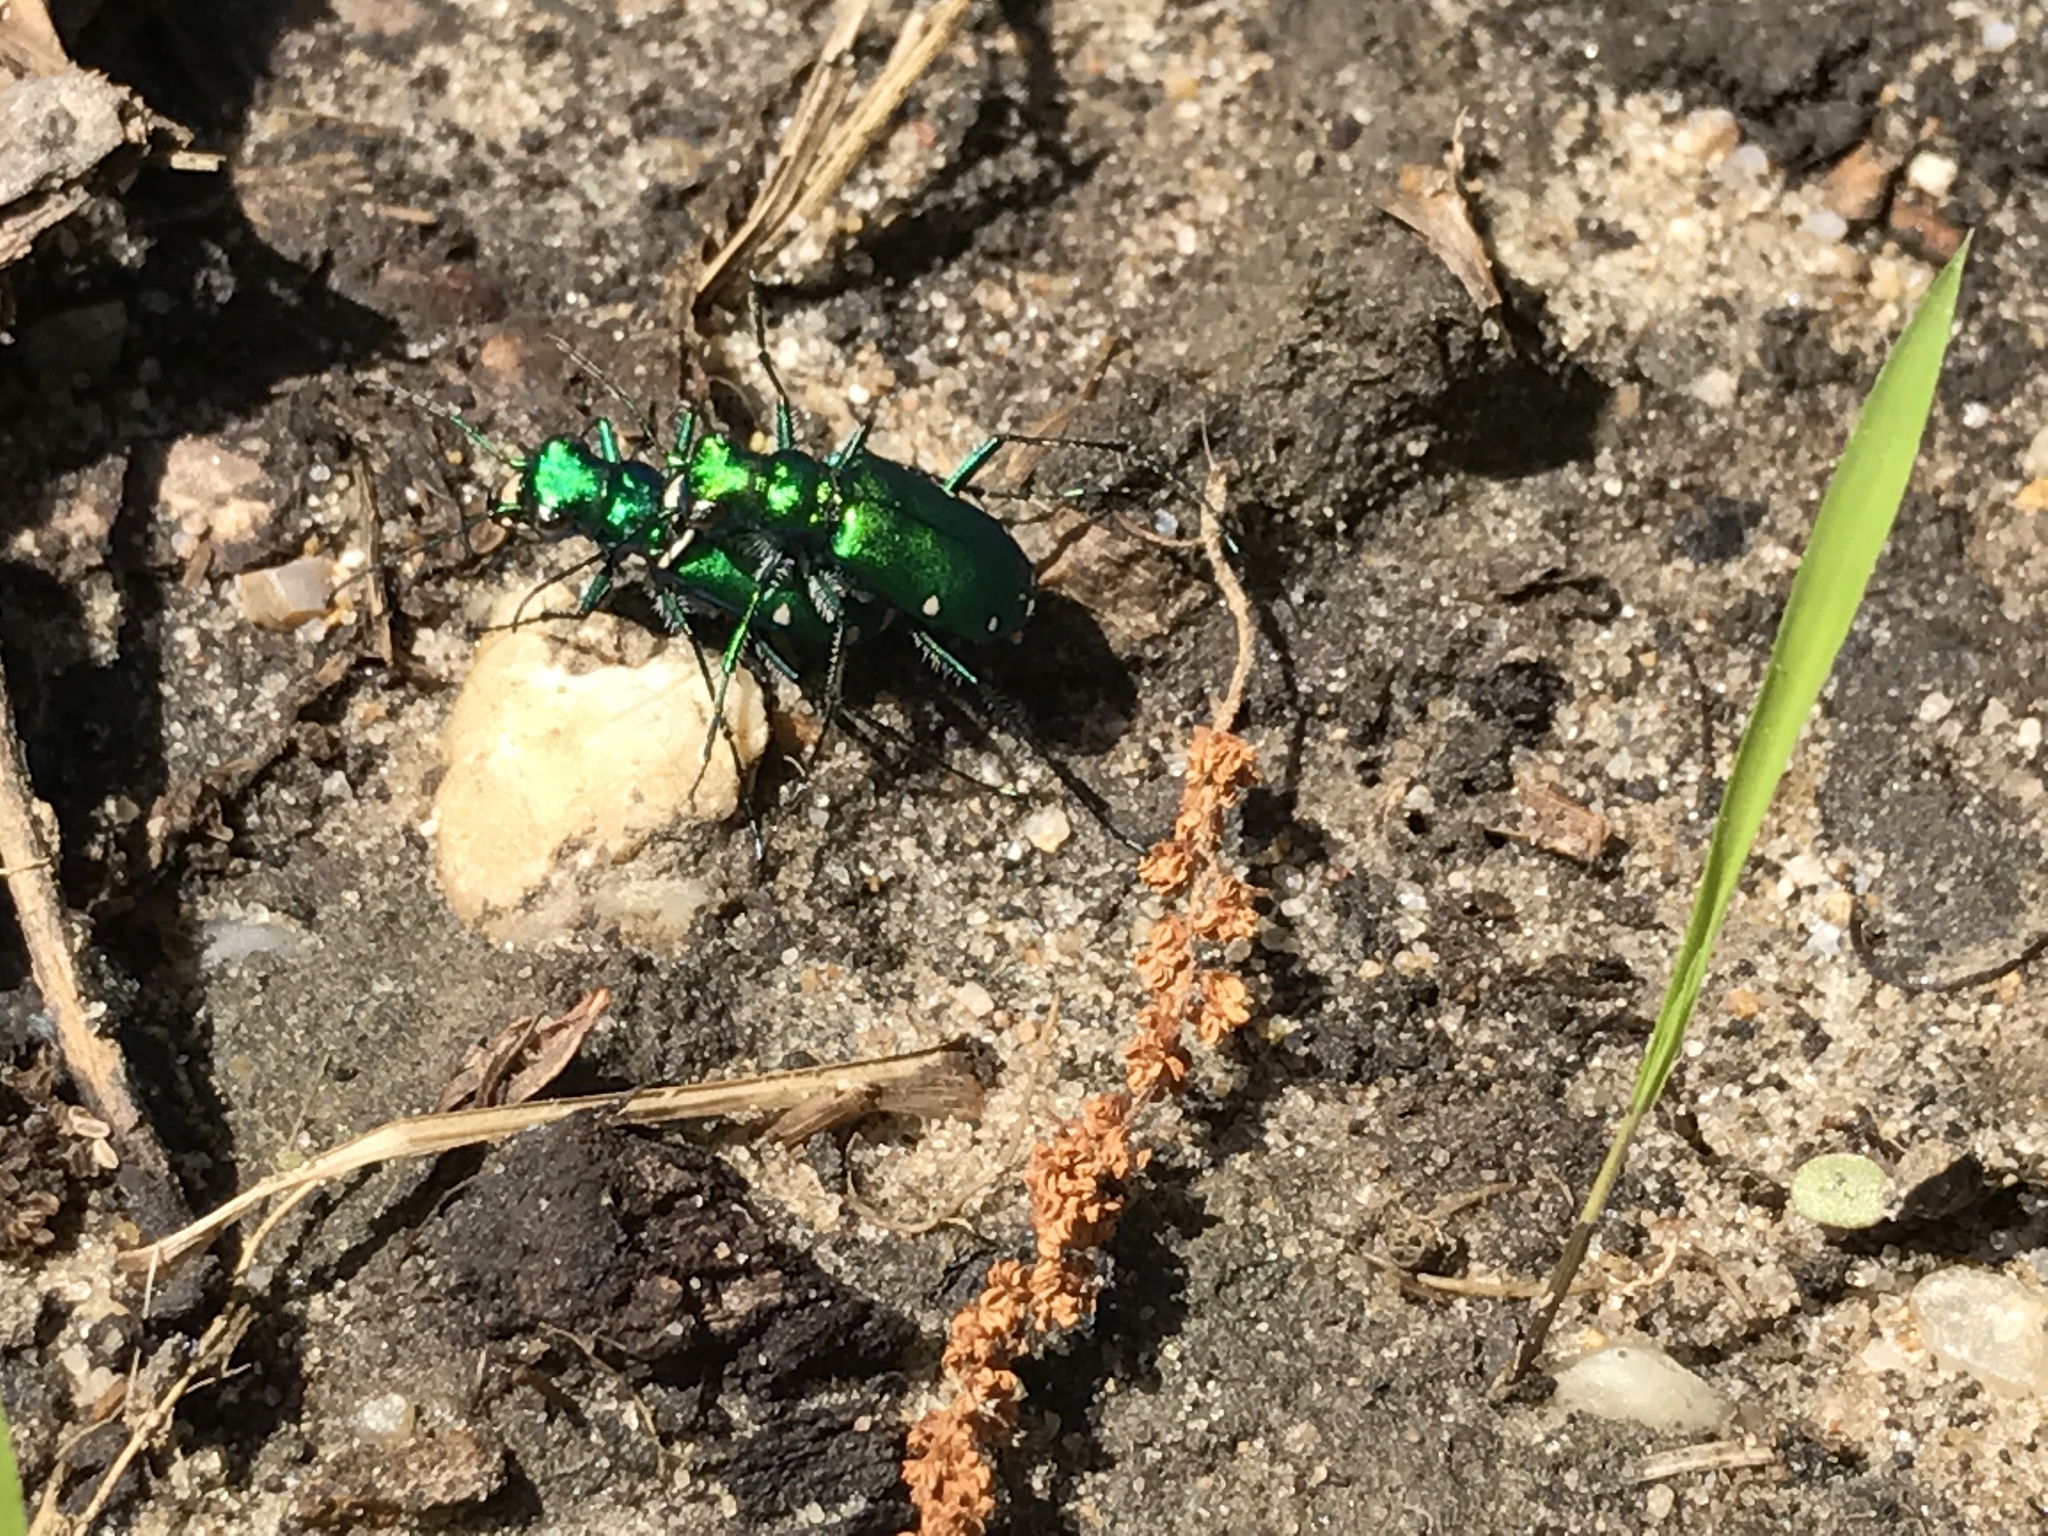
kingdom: Animalia
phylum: Arthropoda
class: Insecta
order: Coleoptera
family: Carabidae
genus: Cicindela
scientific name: Cicindela sexguttata
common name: Six-spotted tiger beetle
